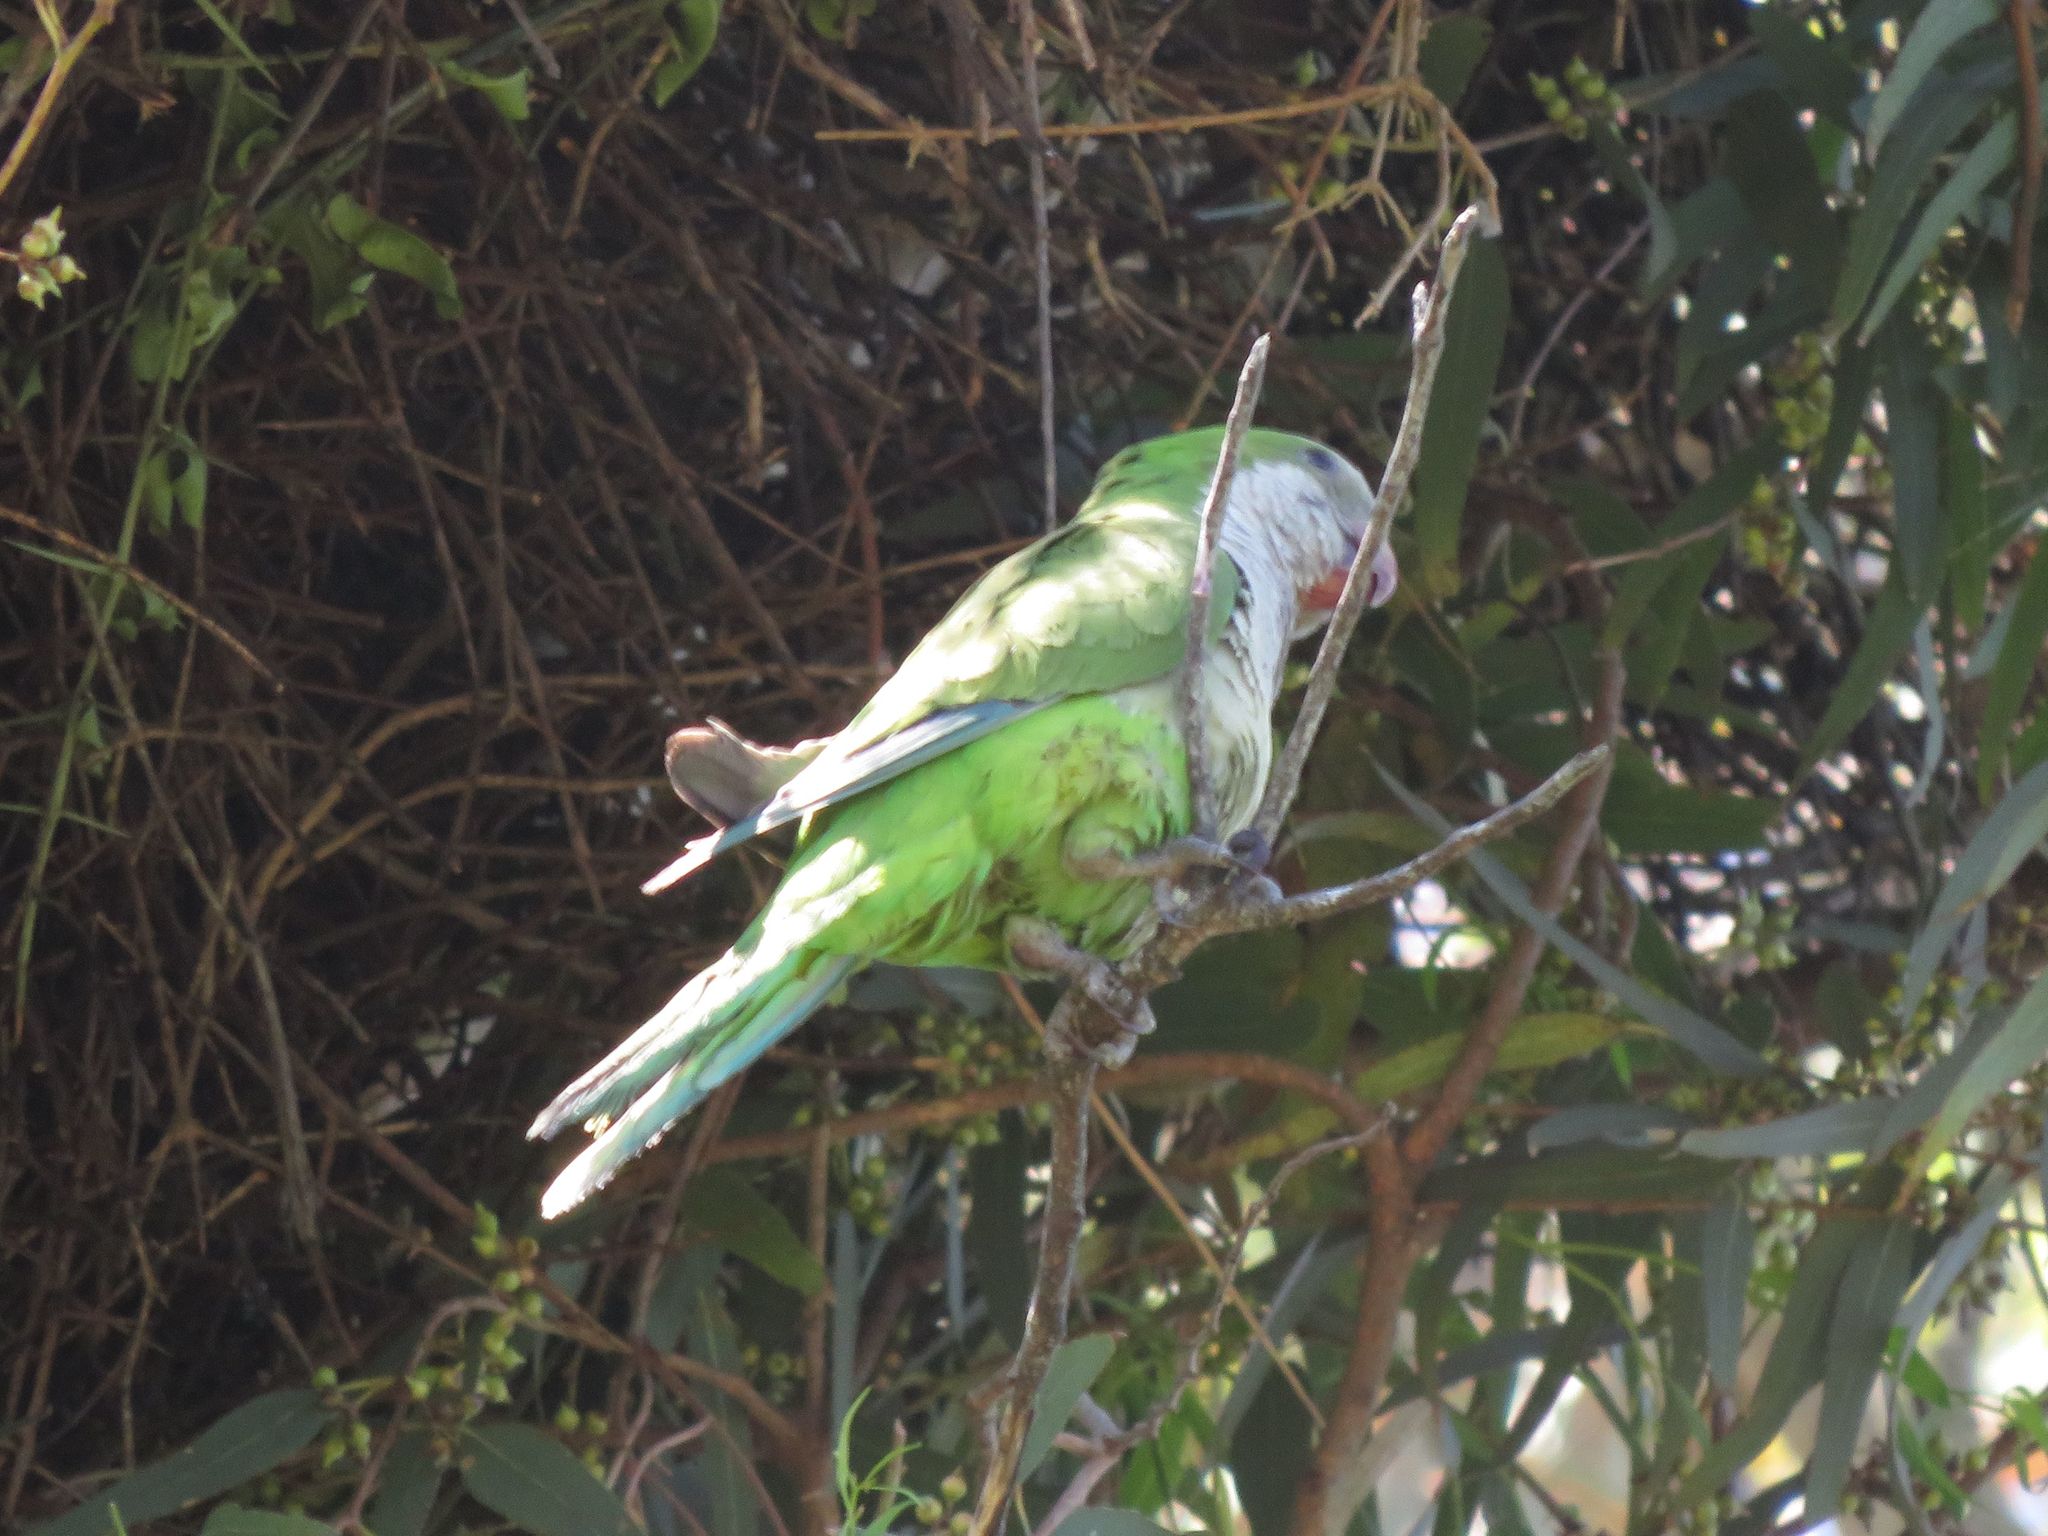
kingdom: Animalia
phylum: Chordata
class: Aves
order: Psittaciformes
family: Psittacidae
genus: Myiopsitta
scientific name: Myiopsitta monachus
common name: Monk parakeet
